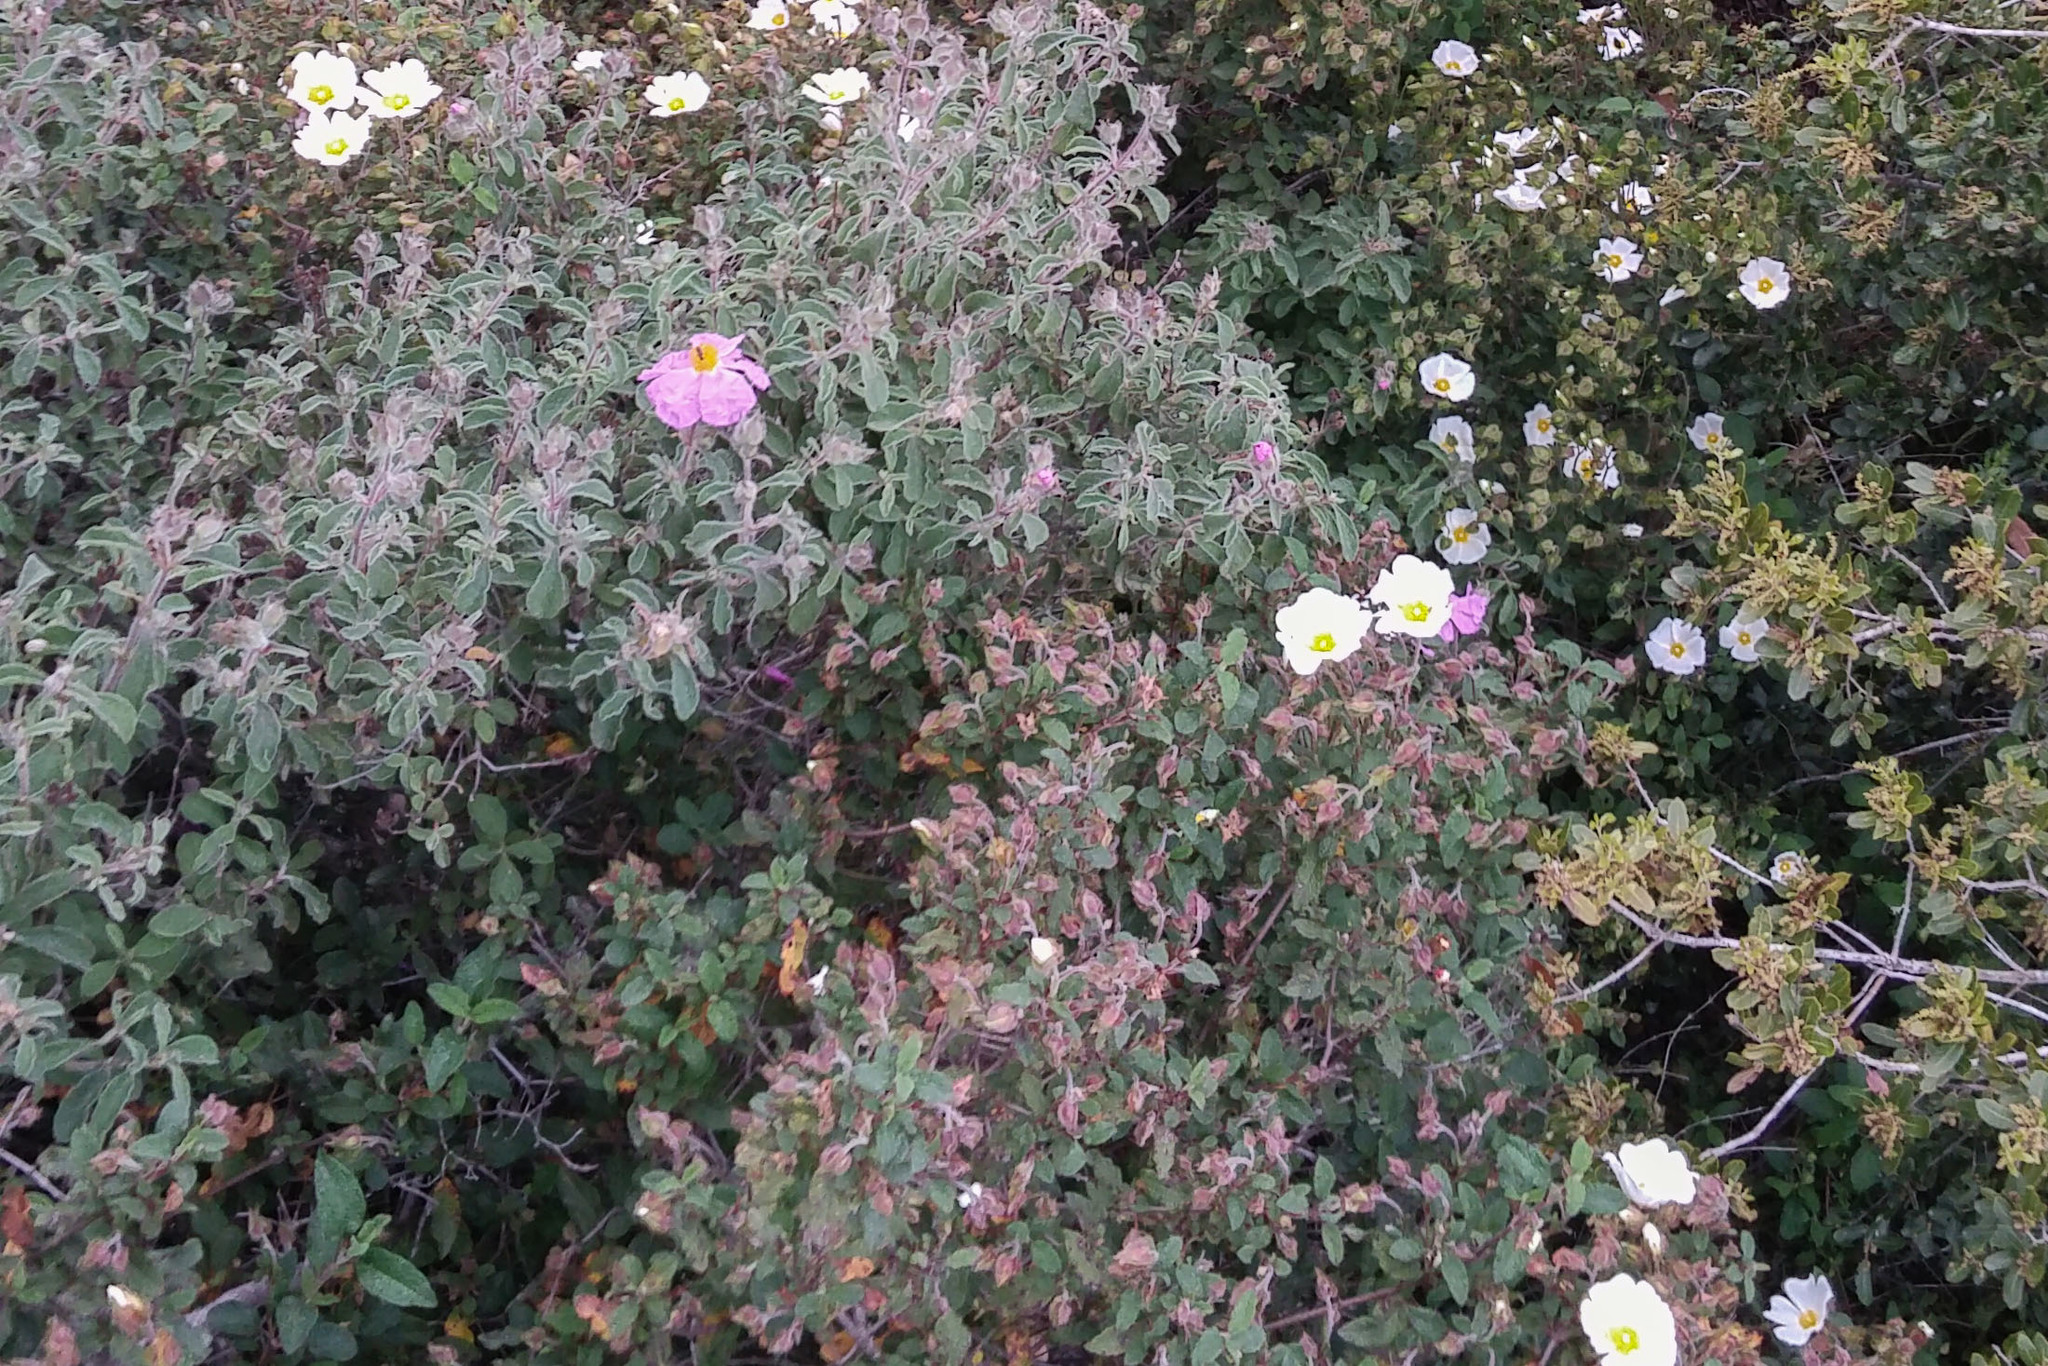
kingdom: Plantae
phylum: Tracheophyta
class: Magnoliopsida
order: Malvales
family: Cistaceae
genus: Cistus
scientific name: Cistus creticus
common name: Cretan rockrose
